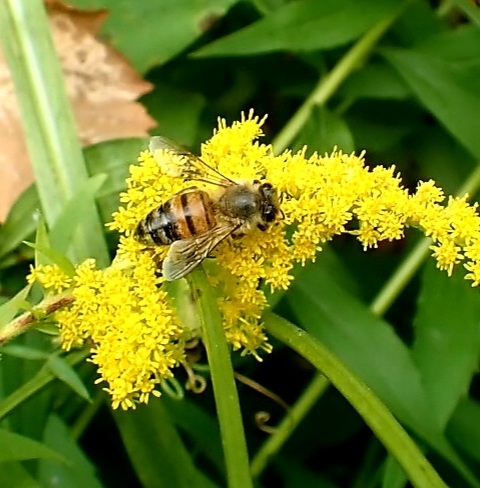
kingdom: Animalia
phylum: Arthropoda
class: Insecta
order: Hymenoptera
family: Apidae
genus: Apis
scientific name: Apis mellifera
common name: Honey bee
